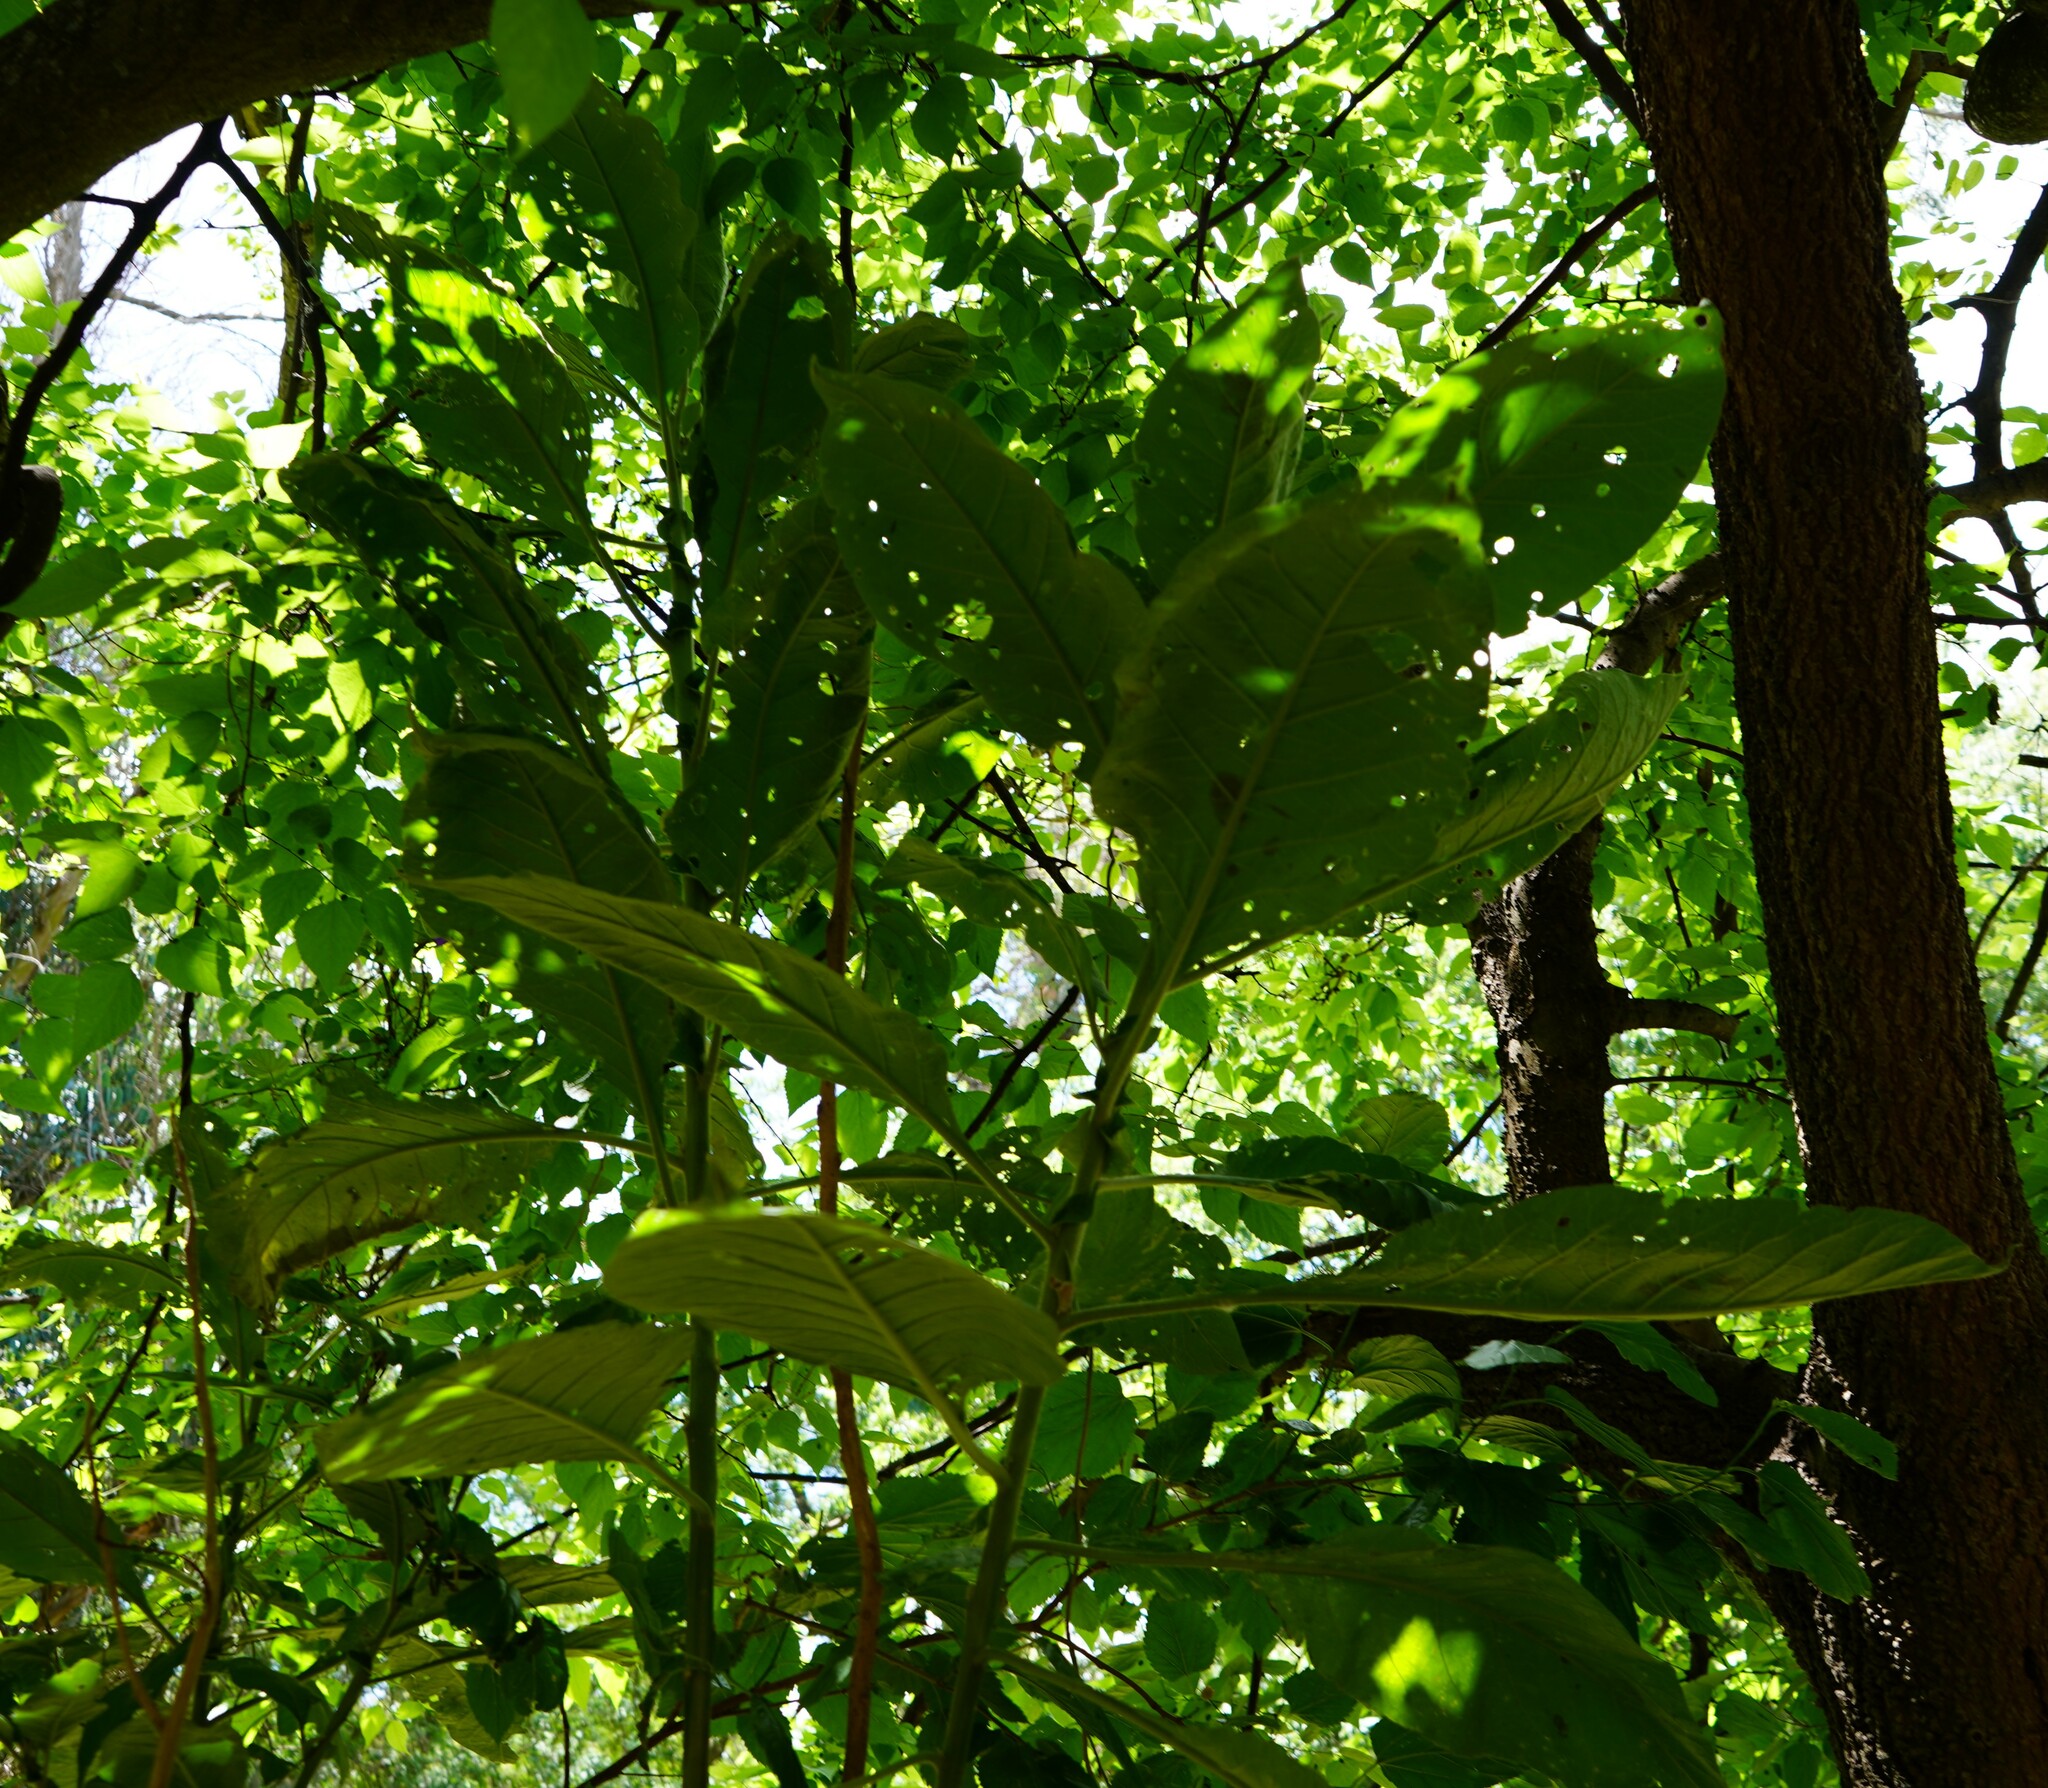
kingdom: Plantae
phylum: Tracheophyta
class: Magnoliopsida
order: Solanales
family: Solanaceae
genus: Solanum
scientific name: Solanum granulosoleprosum
